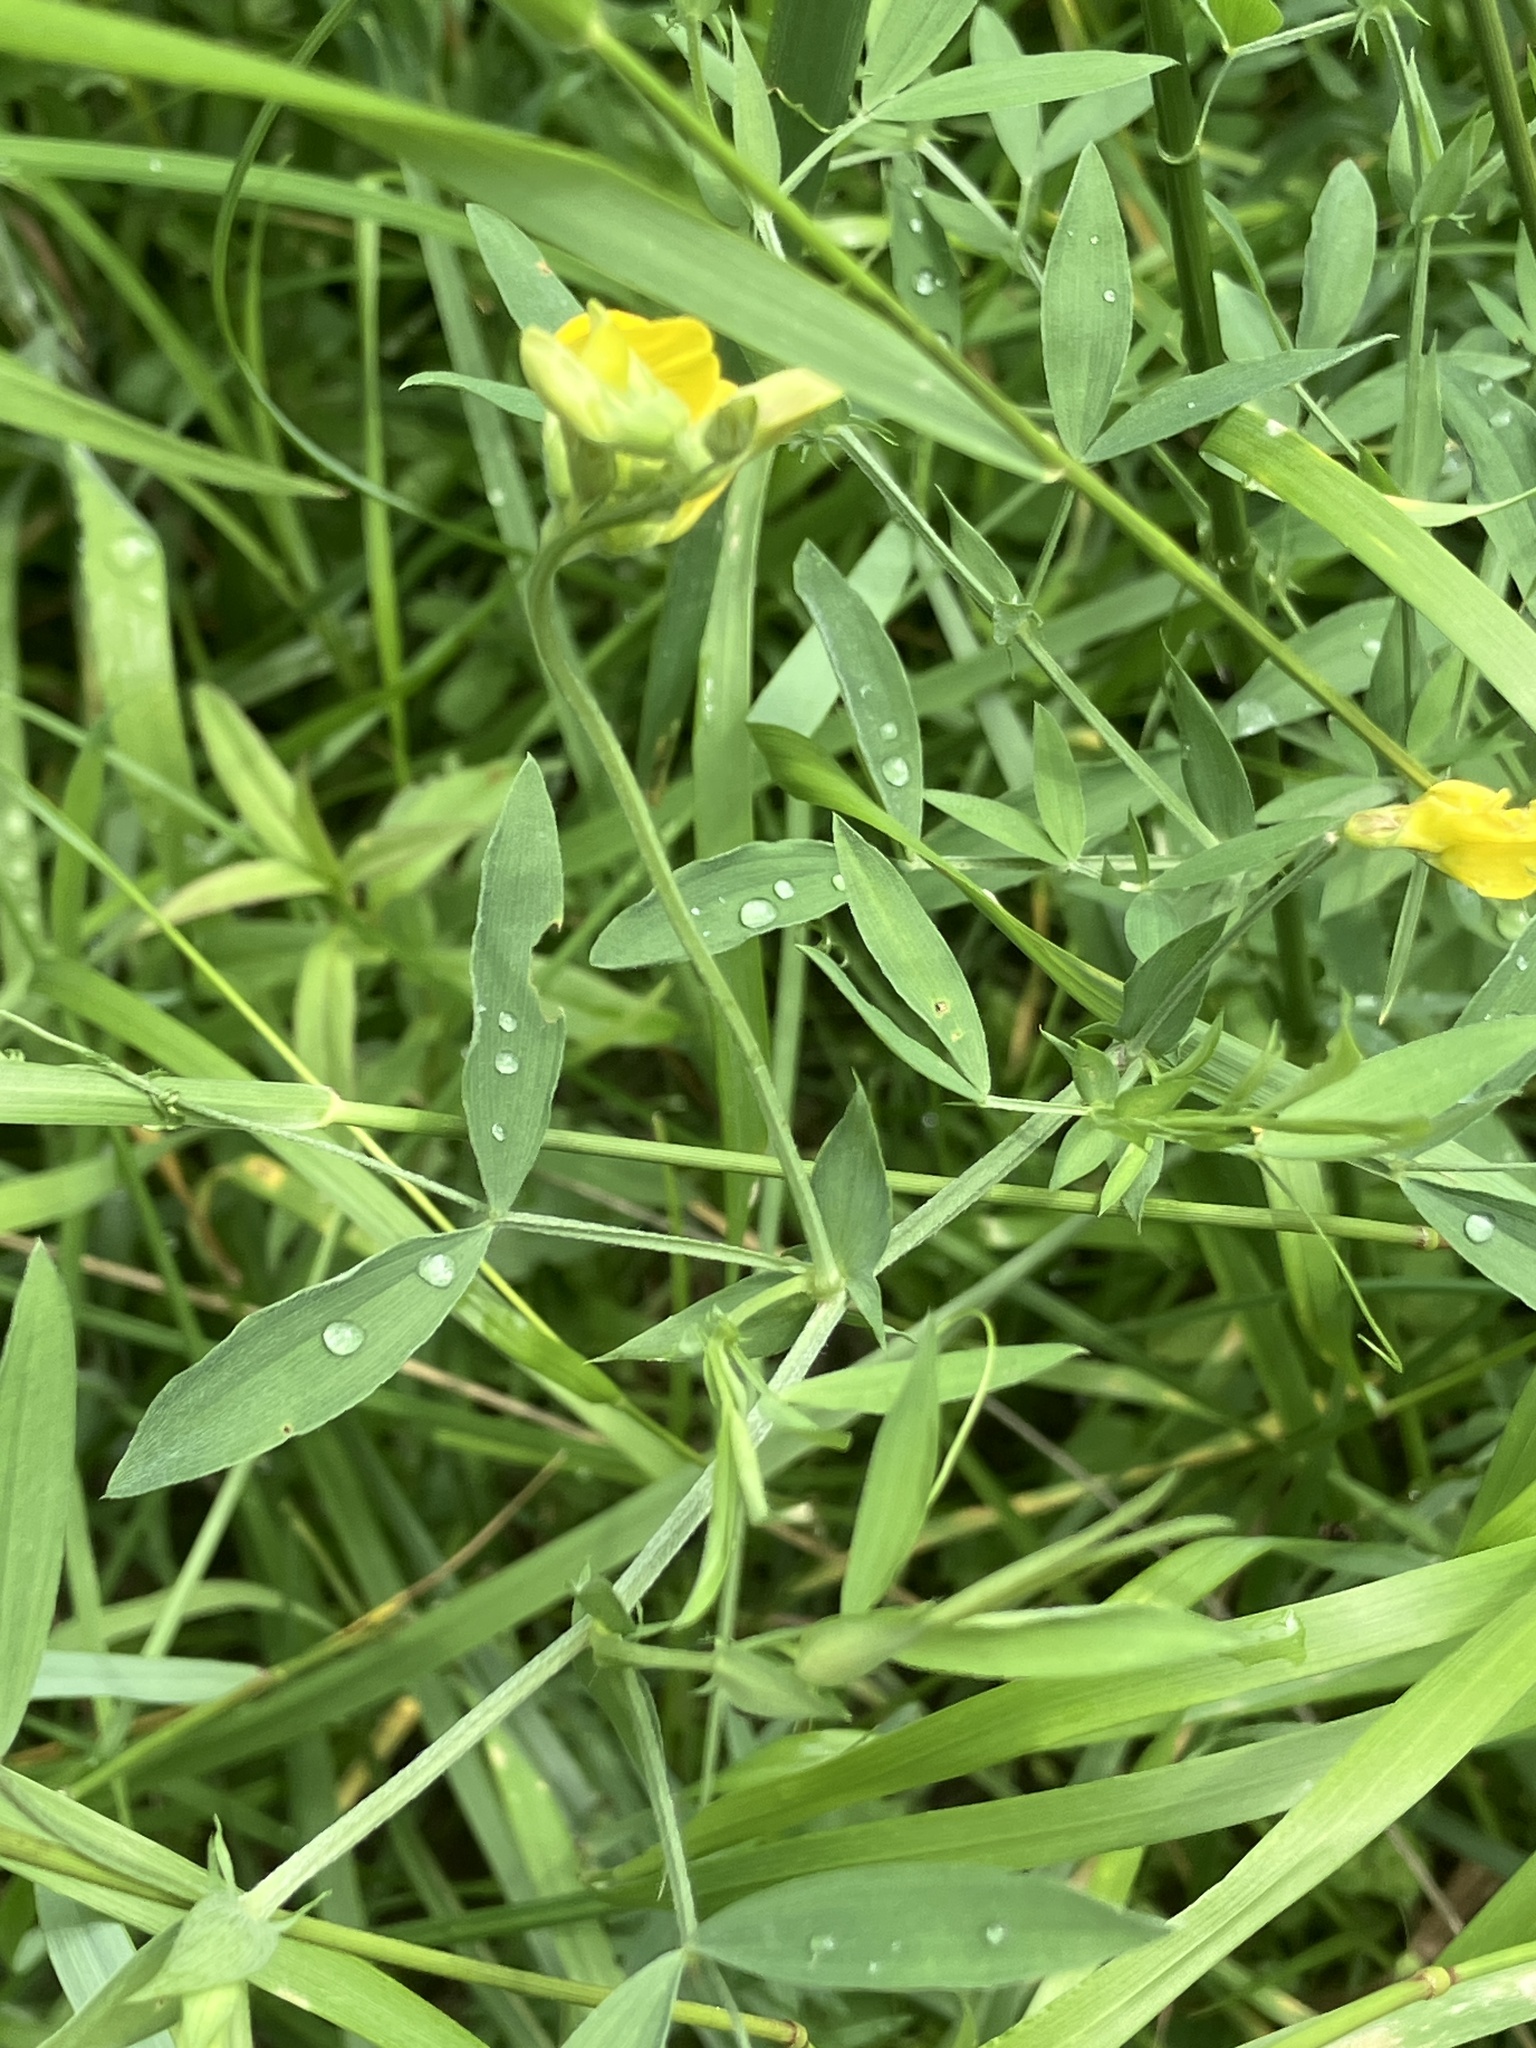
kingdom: Plantae
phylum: Tracheophyta
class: Magnoliopsida
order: Fabales
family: Fabaceae
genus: Lathyrus
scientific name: Lathyrus pratensis
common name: Meadow vetchling
